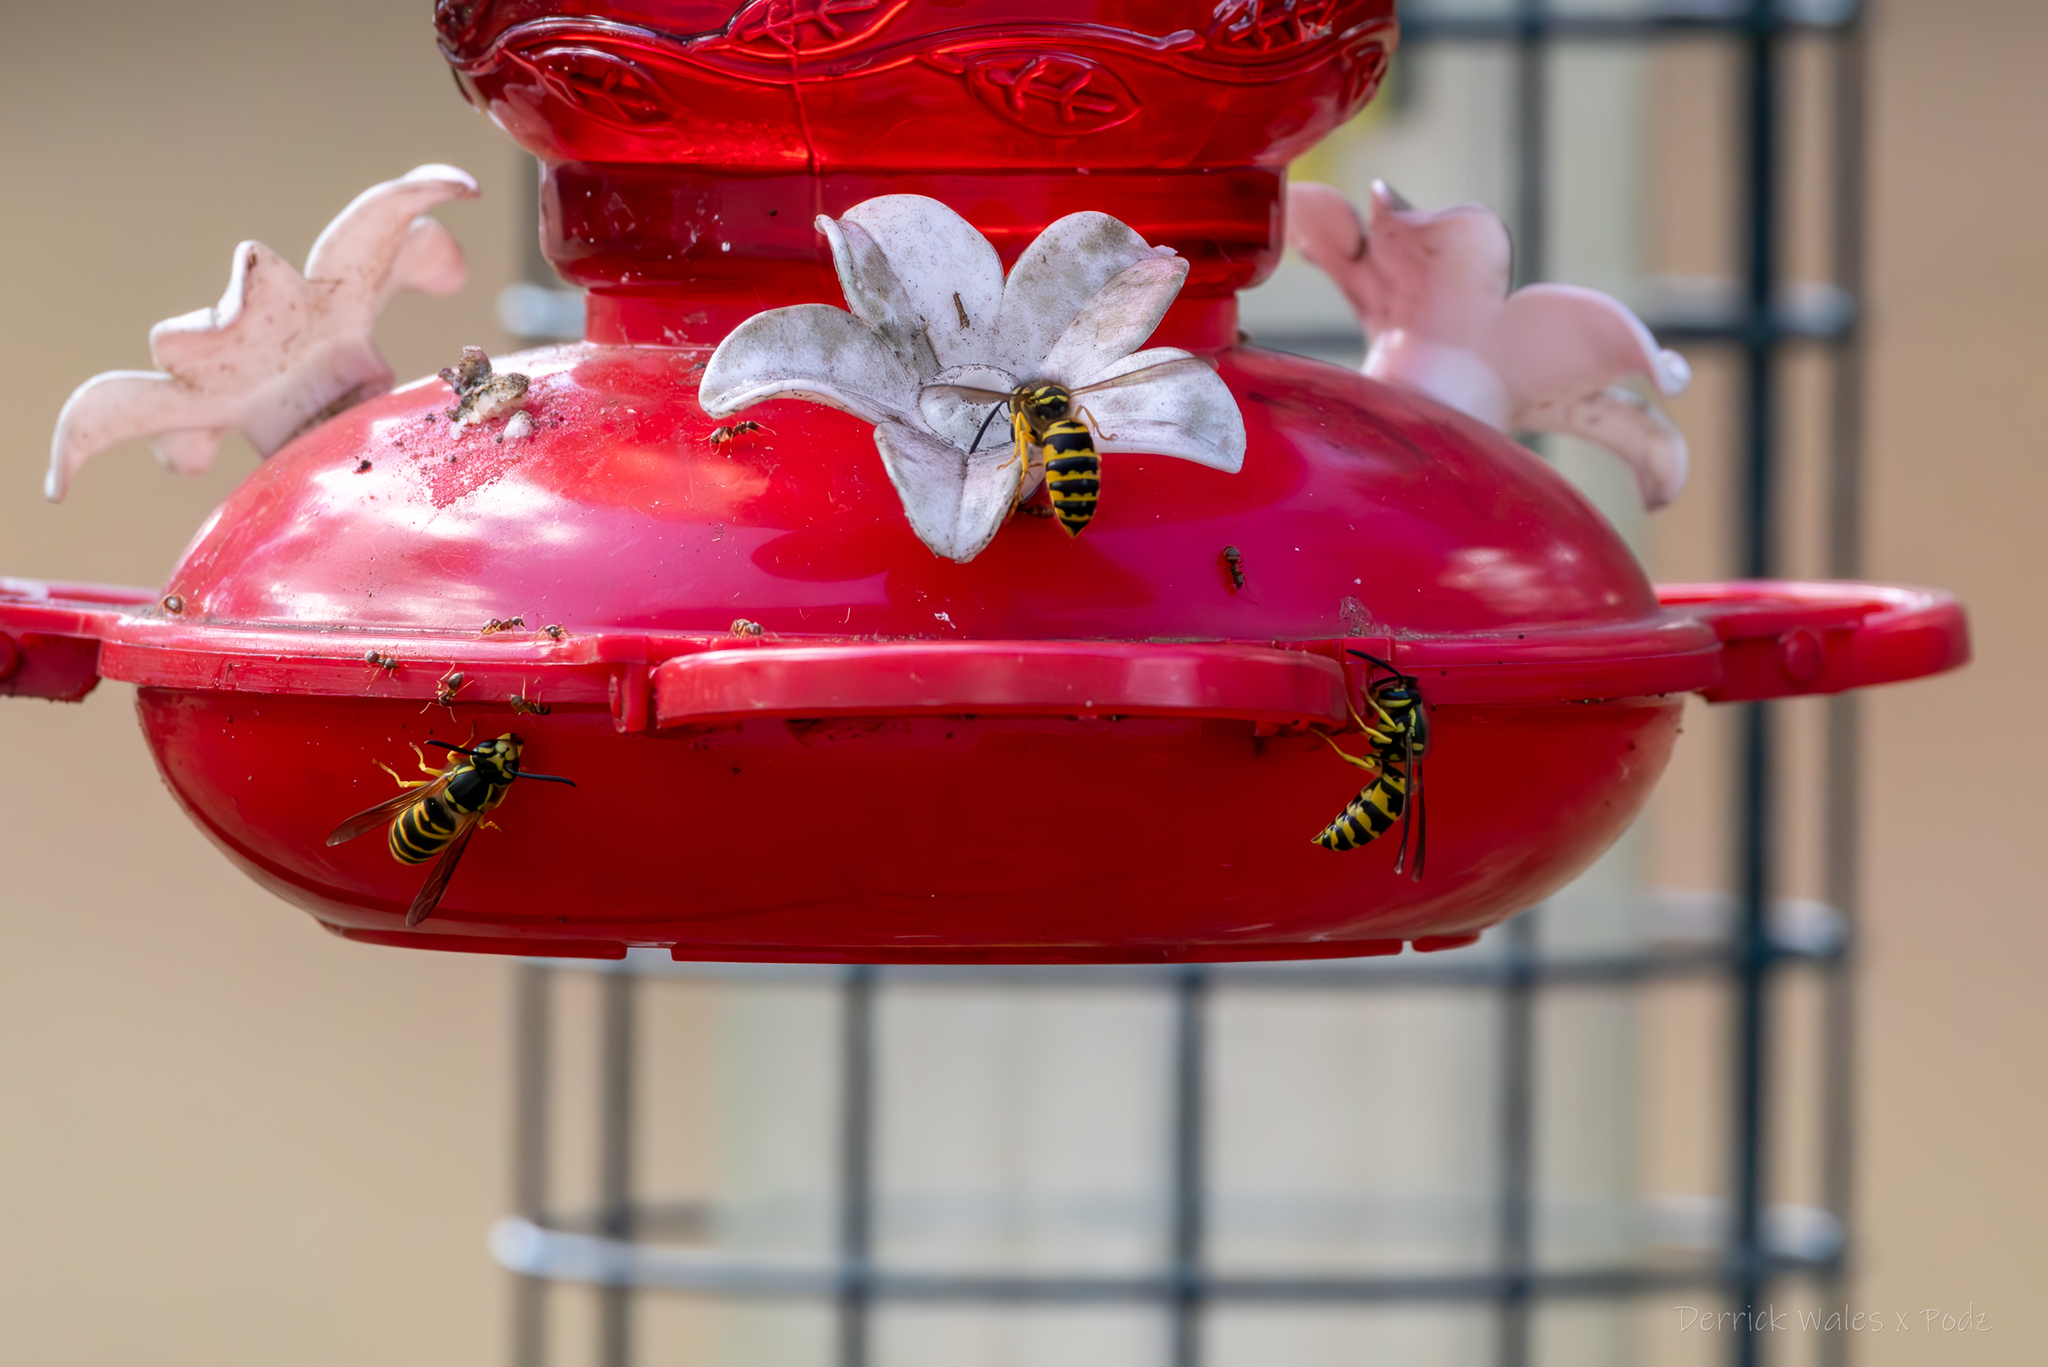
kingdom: Animalia
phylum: Arthropoda
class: Insecta
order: Hymenoptera
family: Vespidae
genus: Vespula
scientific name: Vespula maculifrons
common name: Eastern yellowjacket
